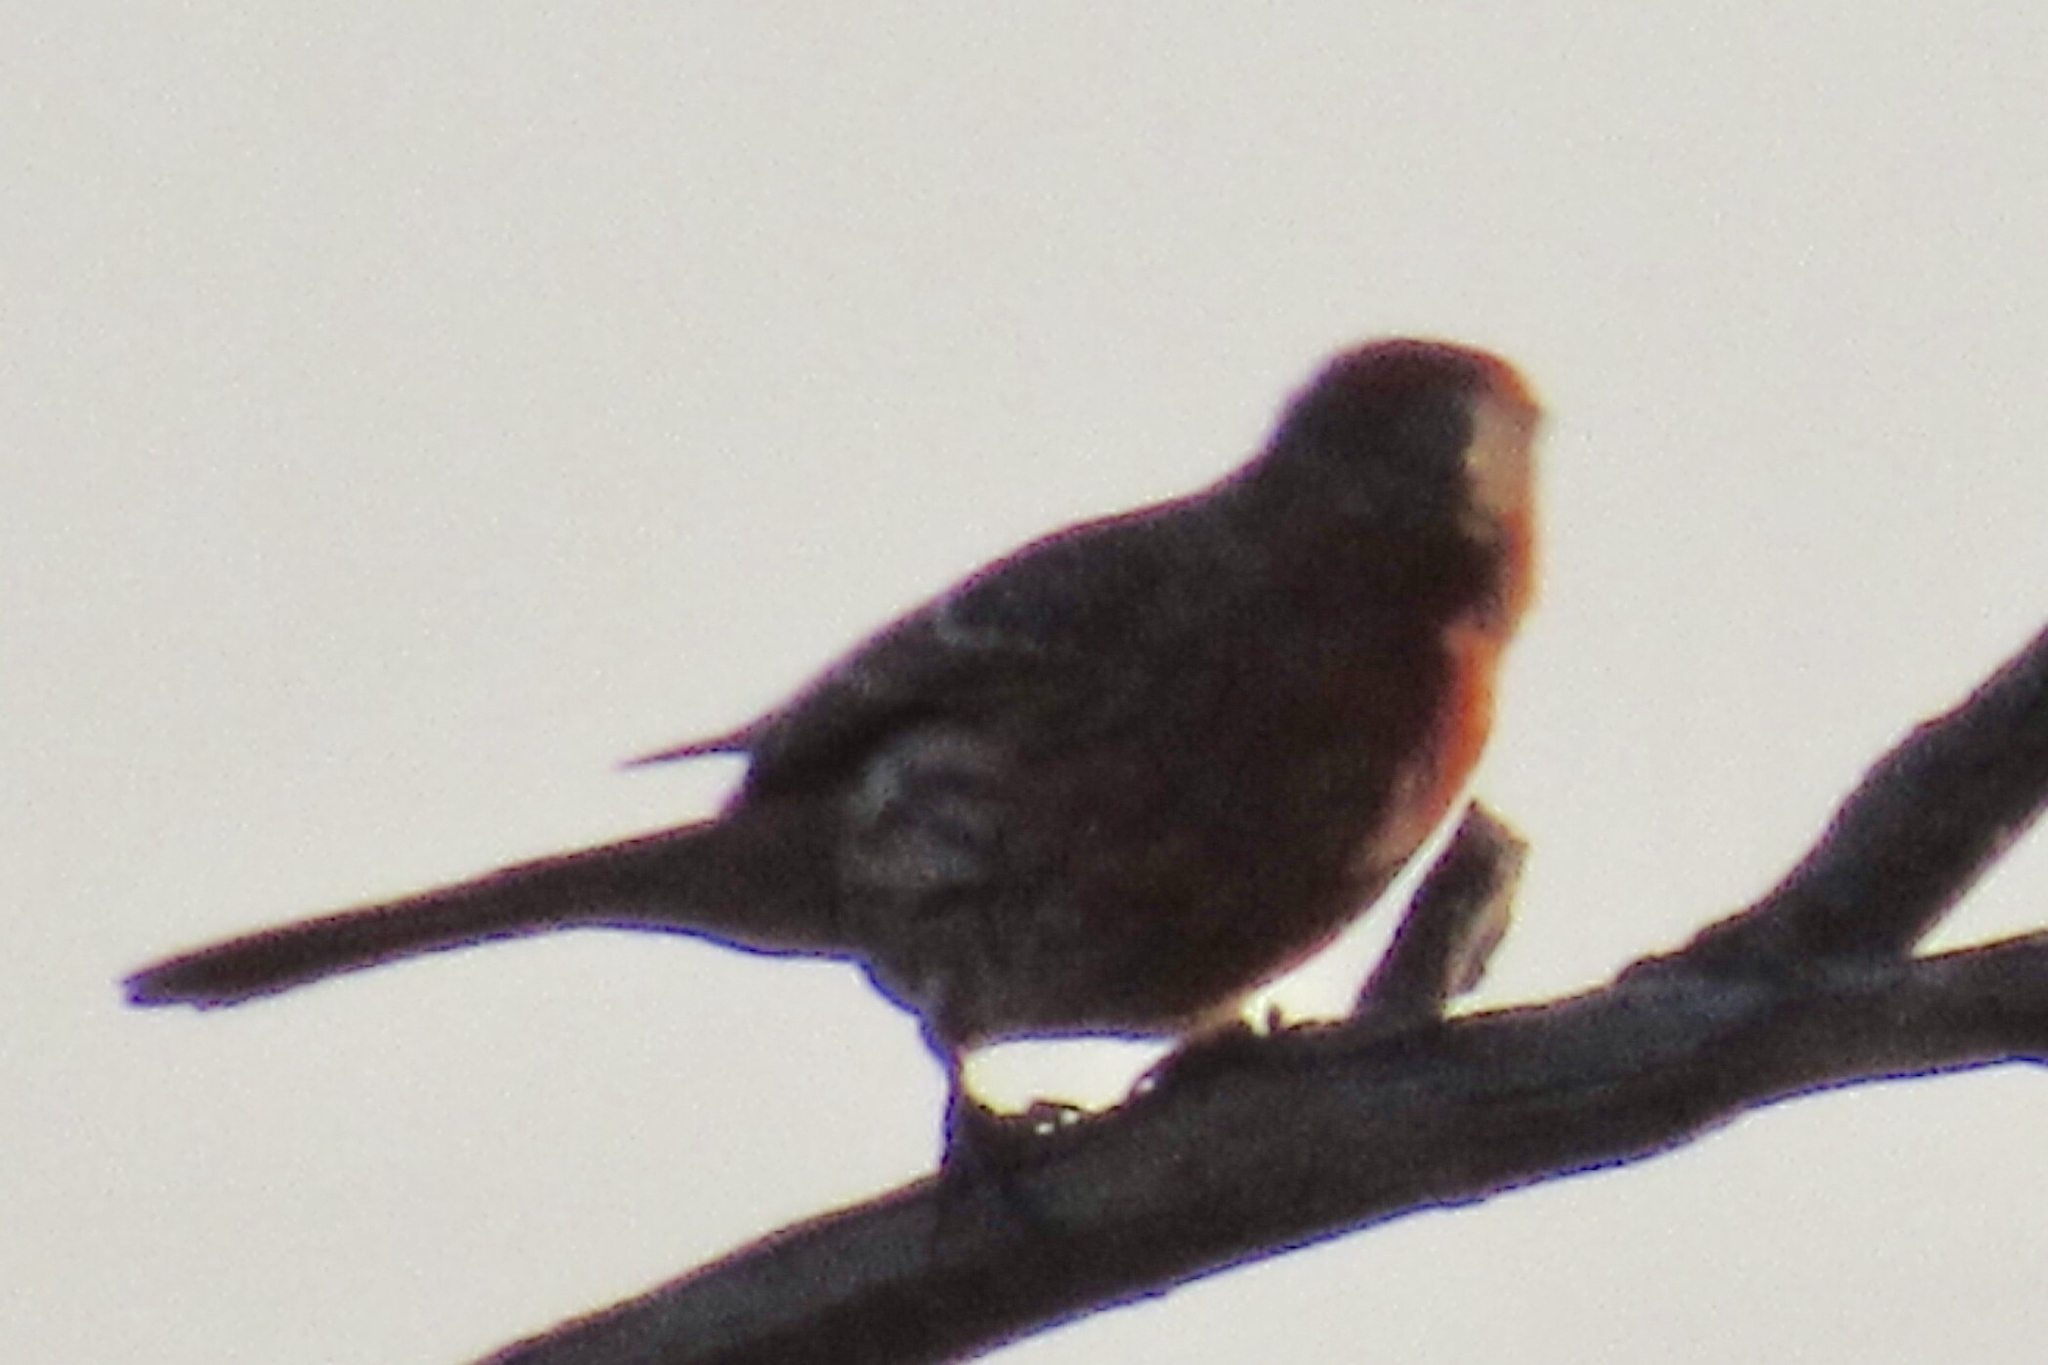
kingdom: Animalia
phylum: Chordata
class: Aves
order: Passeriformes
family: Fringillidae
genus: Haemorhous
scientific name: Haemorhous mexicanus
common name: House finch
